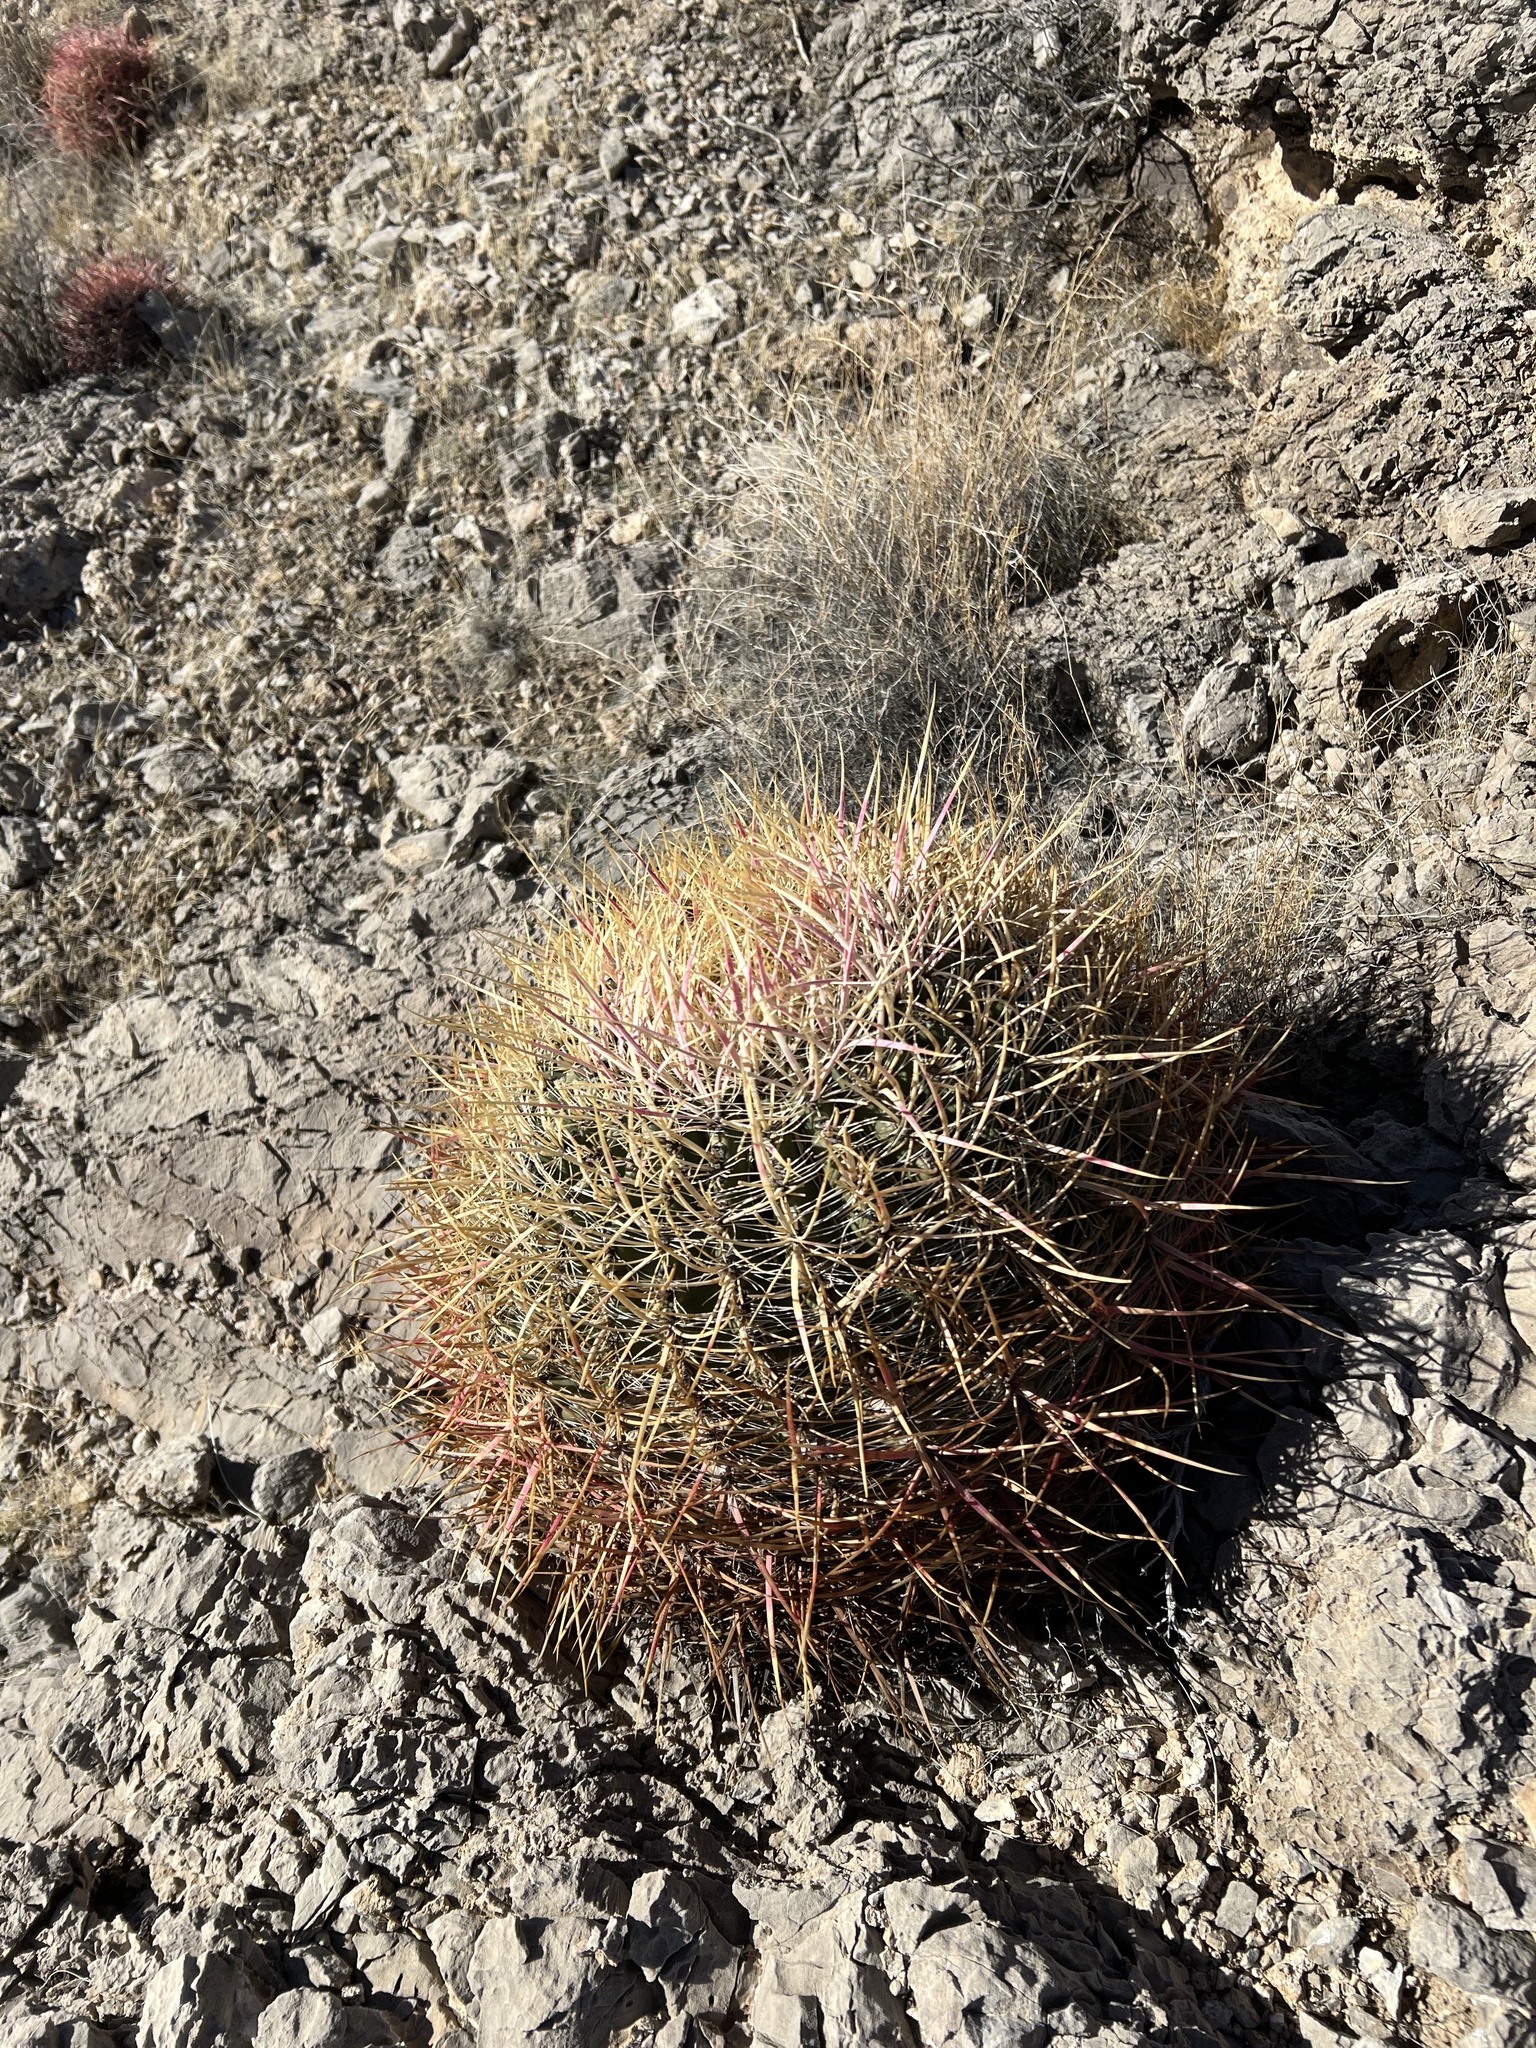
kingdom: Plantae
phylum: Tracheophyta
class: Magnoliopsida
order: Caryophyllales
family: Cactaceae
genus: Ferocactus
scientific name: Ferocactus cylindraceus
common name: California barrel cactus
